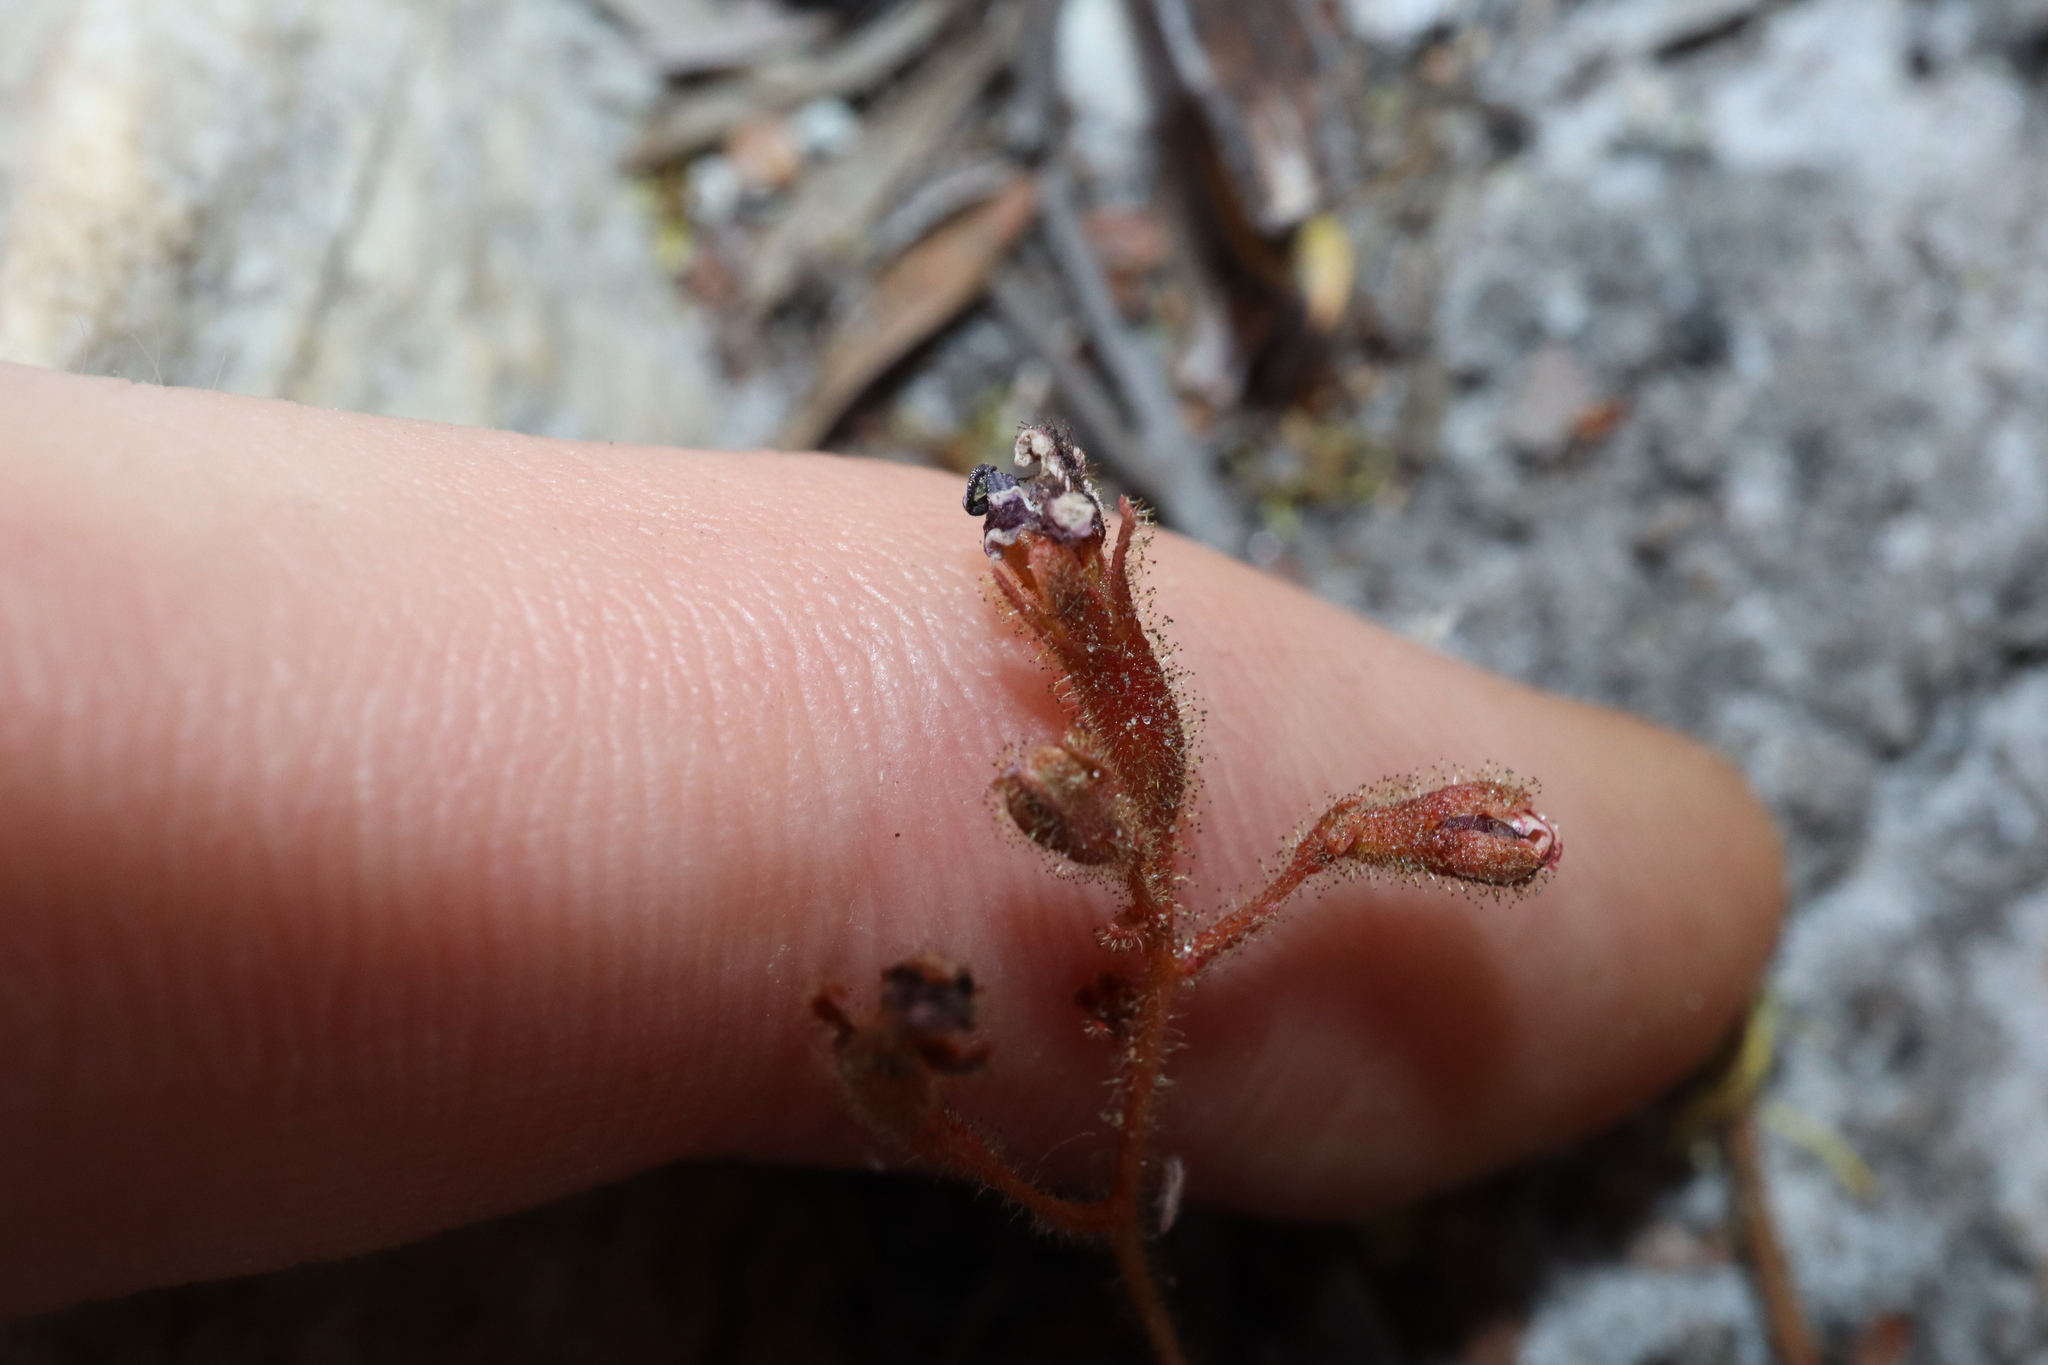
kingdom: Plantae
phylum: Tracheophyta
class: Magnoliopsida
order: Asterales
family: Stylidiaceae
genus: Stylidium
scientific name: Stylidium spinulosum
